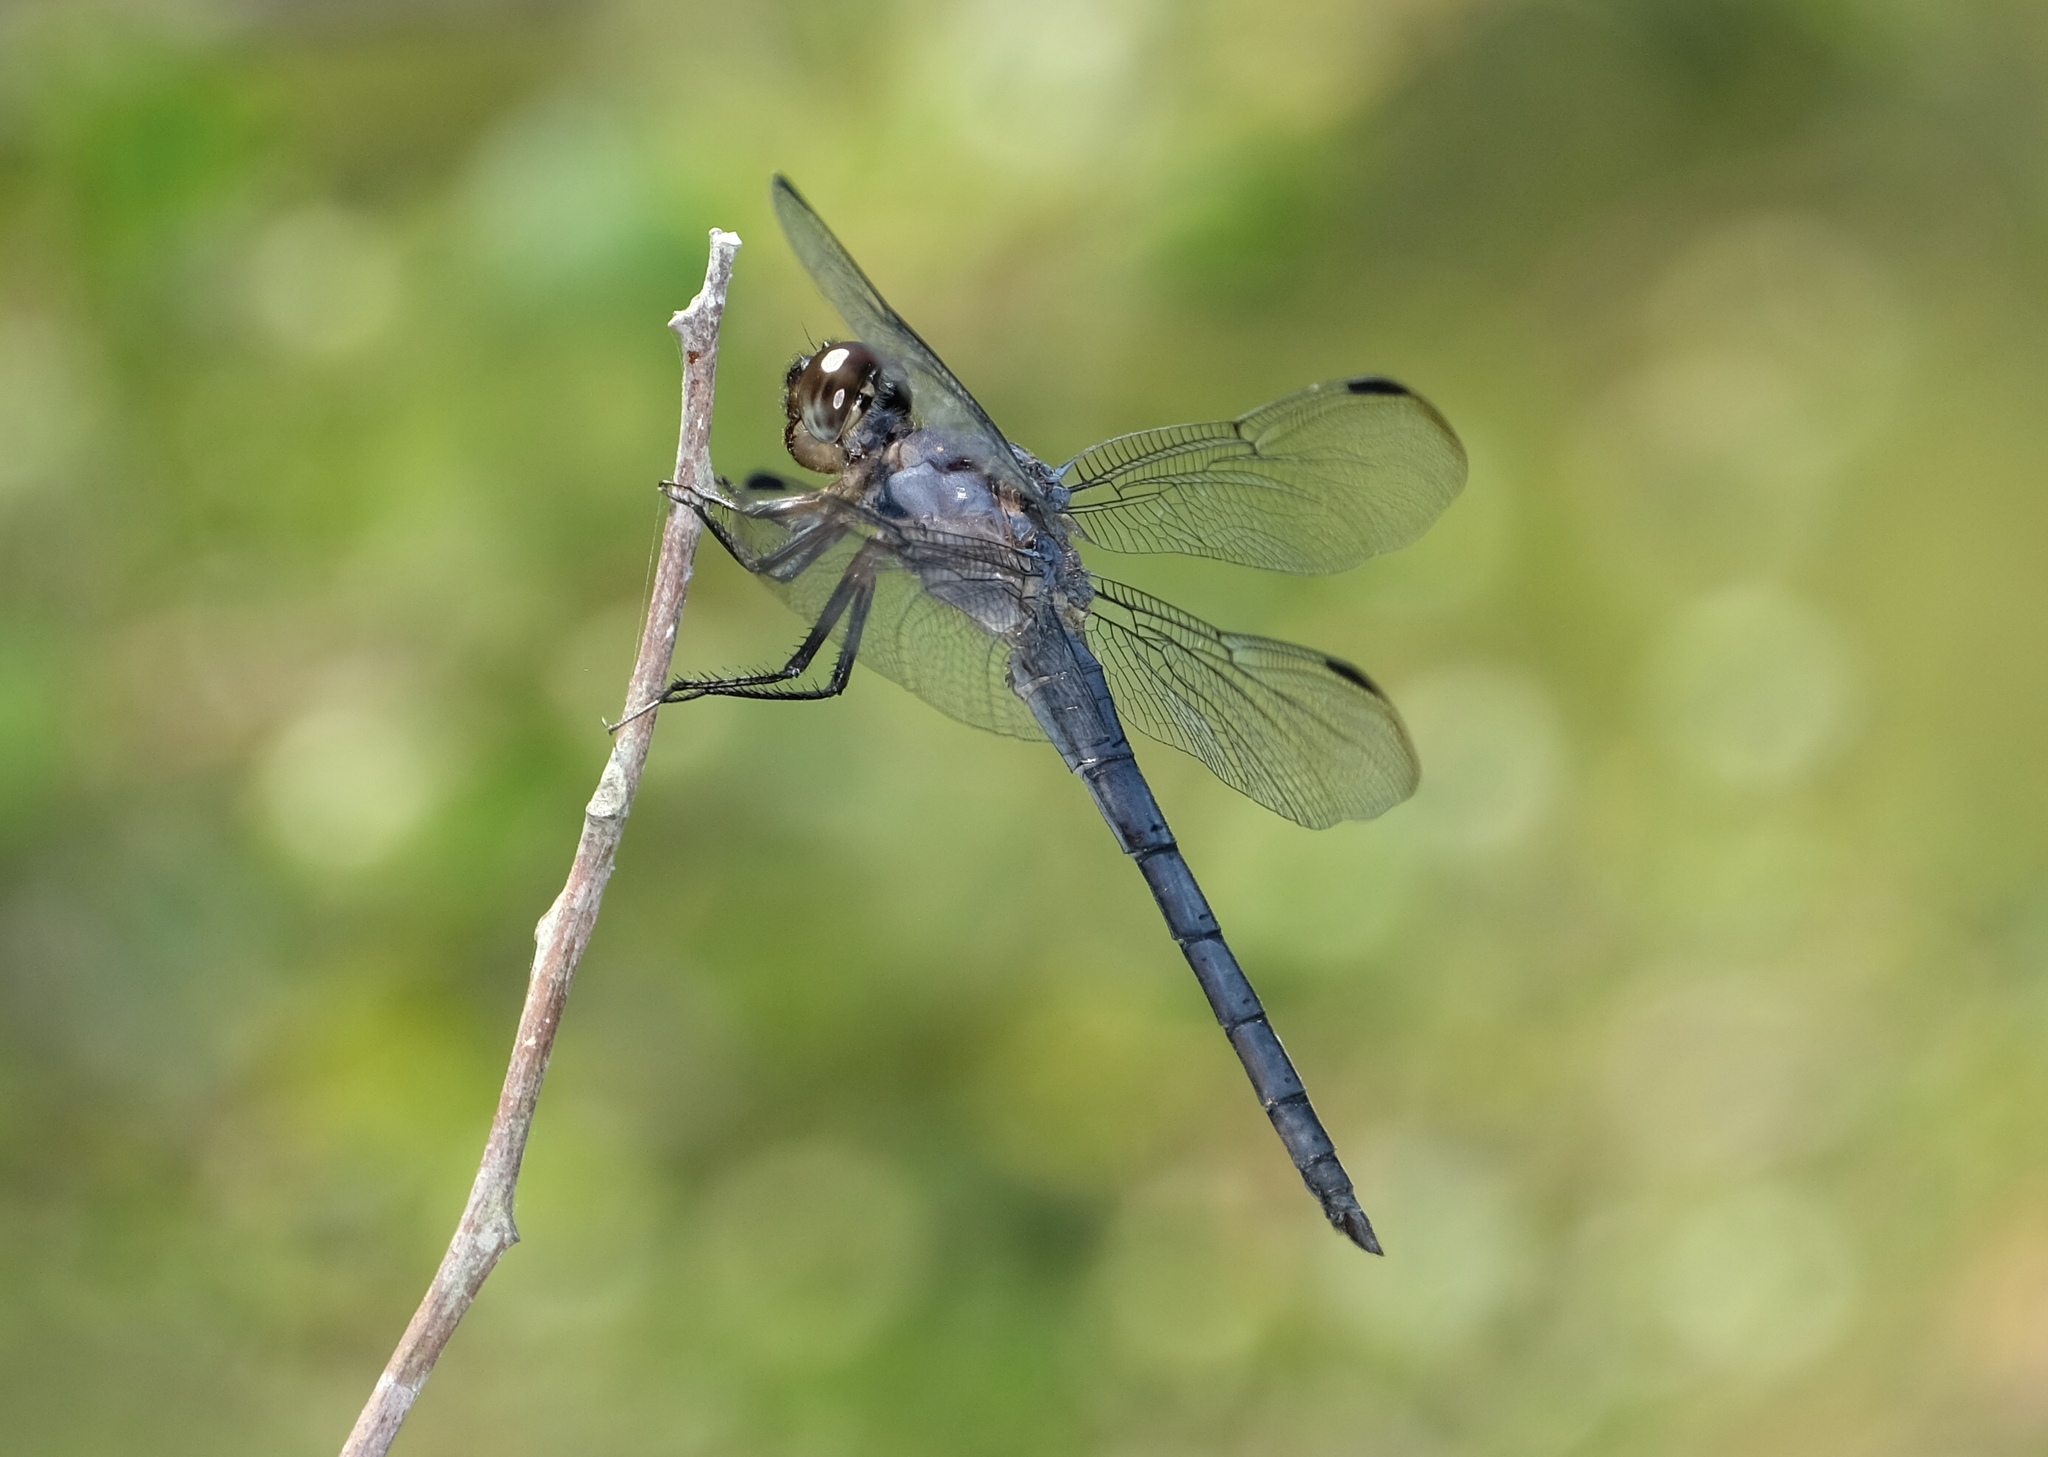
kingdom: Animalia
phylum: Arthropoda
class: Insecta
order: Odonata
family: Libellulidae
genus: Libellula
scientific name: Libellula incesta
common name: Slaty skimmer
